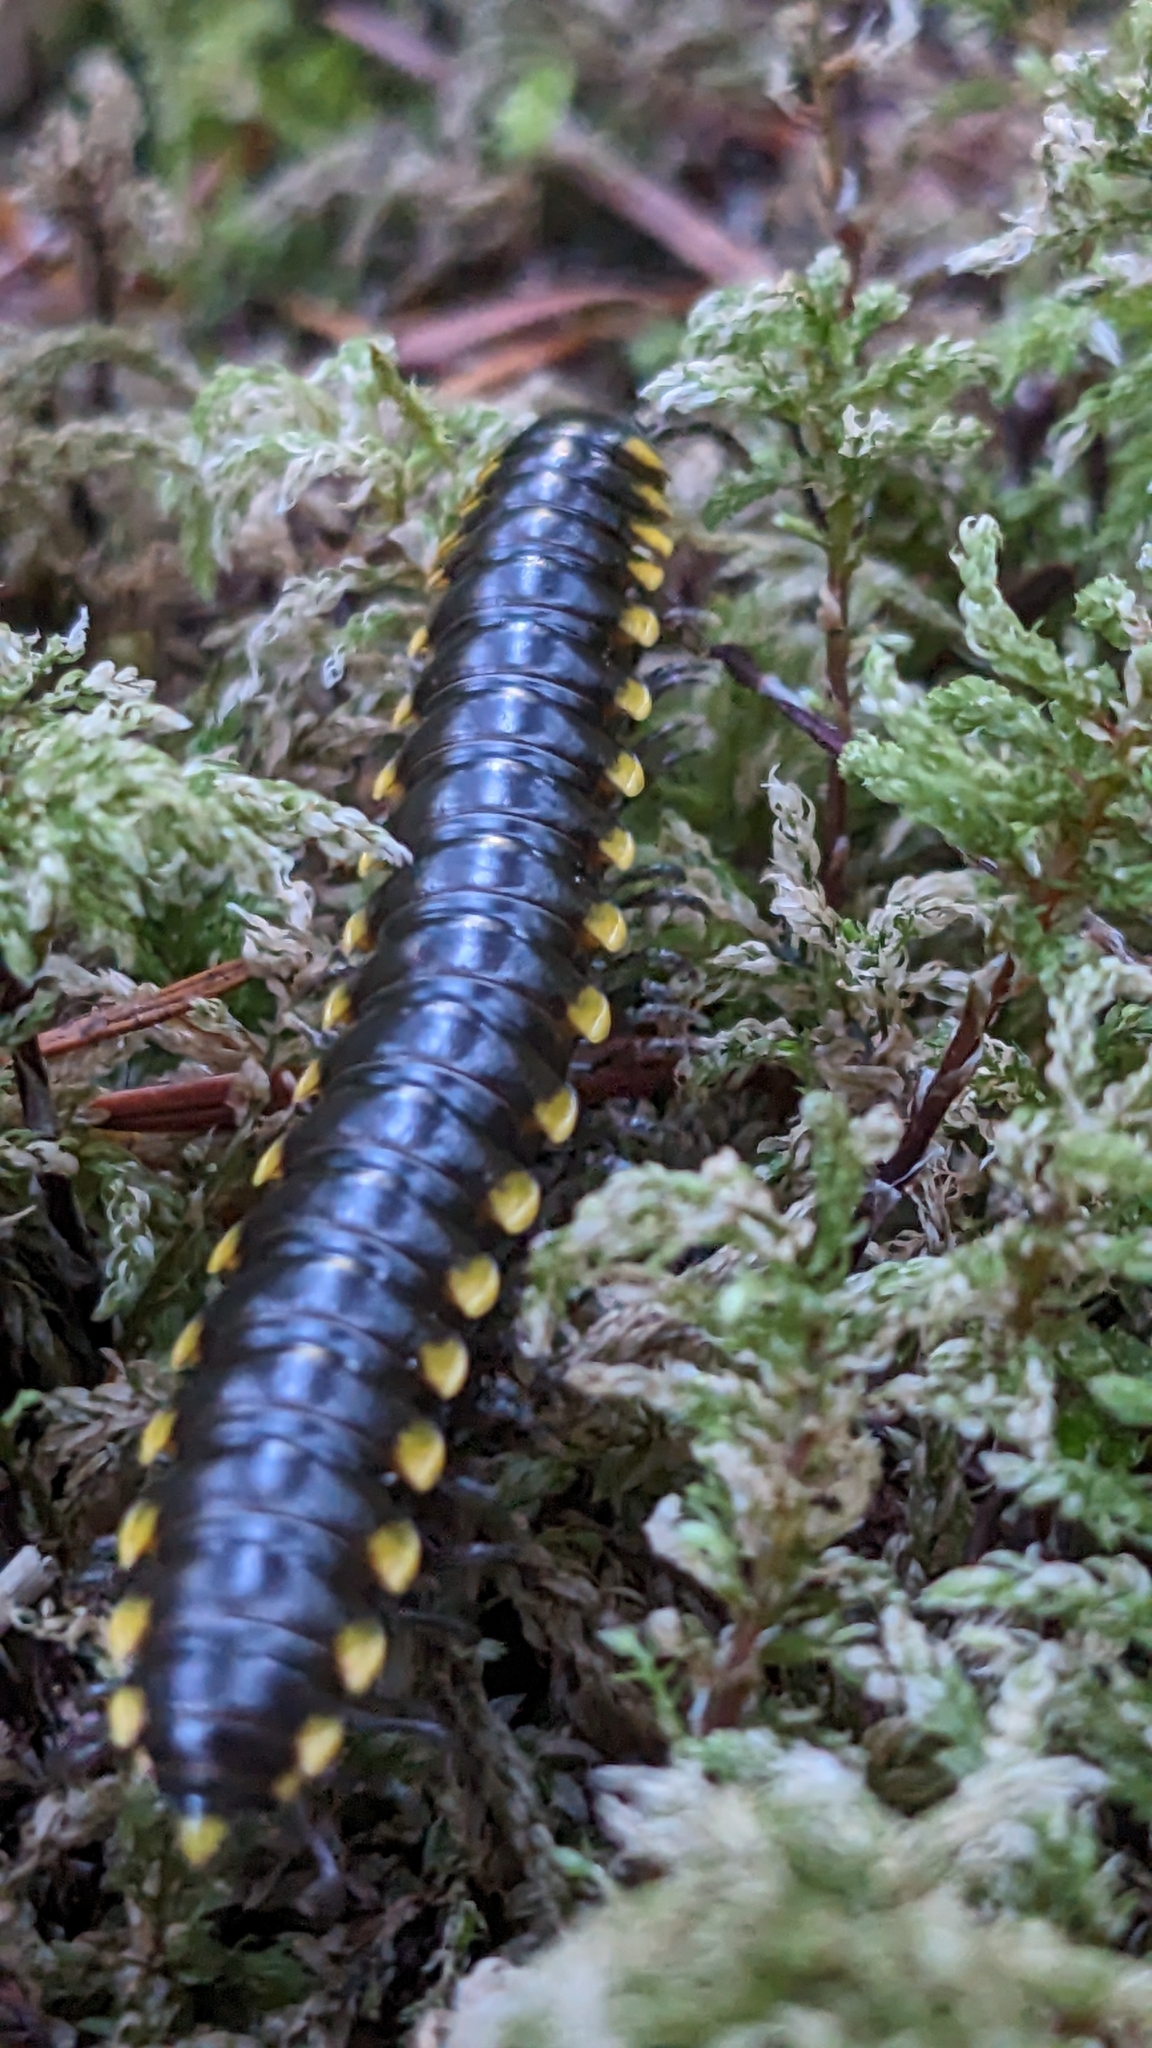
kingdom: Animalia
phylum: Arthropoda
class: Diplopoda
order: Polydesmida
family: Xystodesmidae
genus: Harpaphe
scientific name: Harpaphe haydeniana
